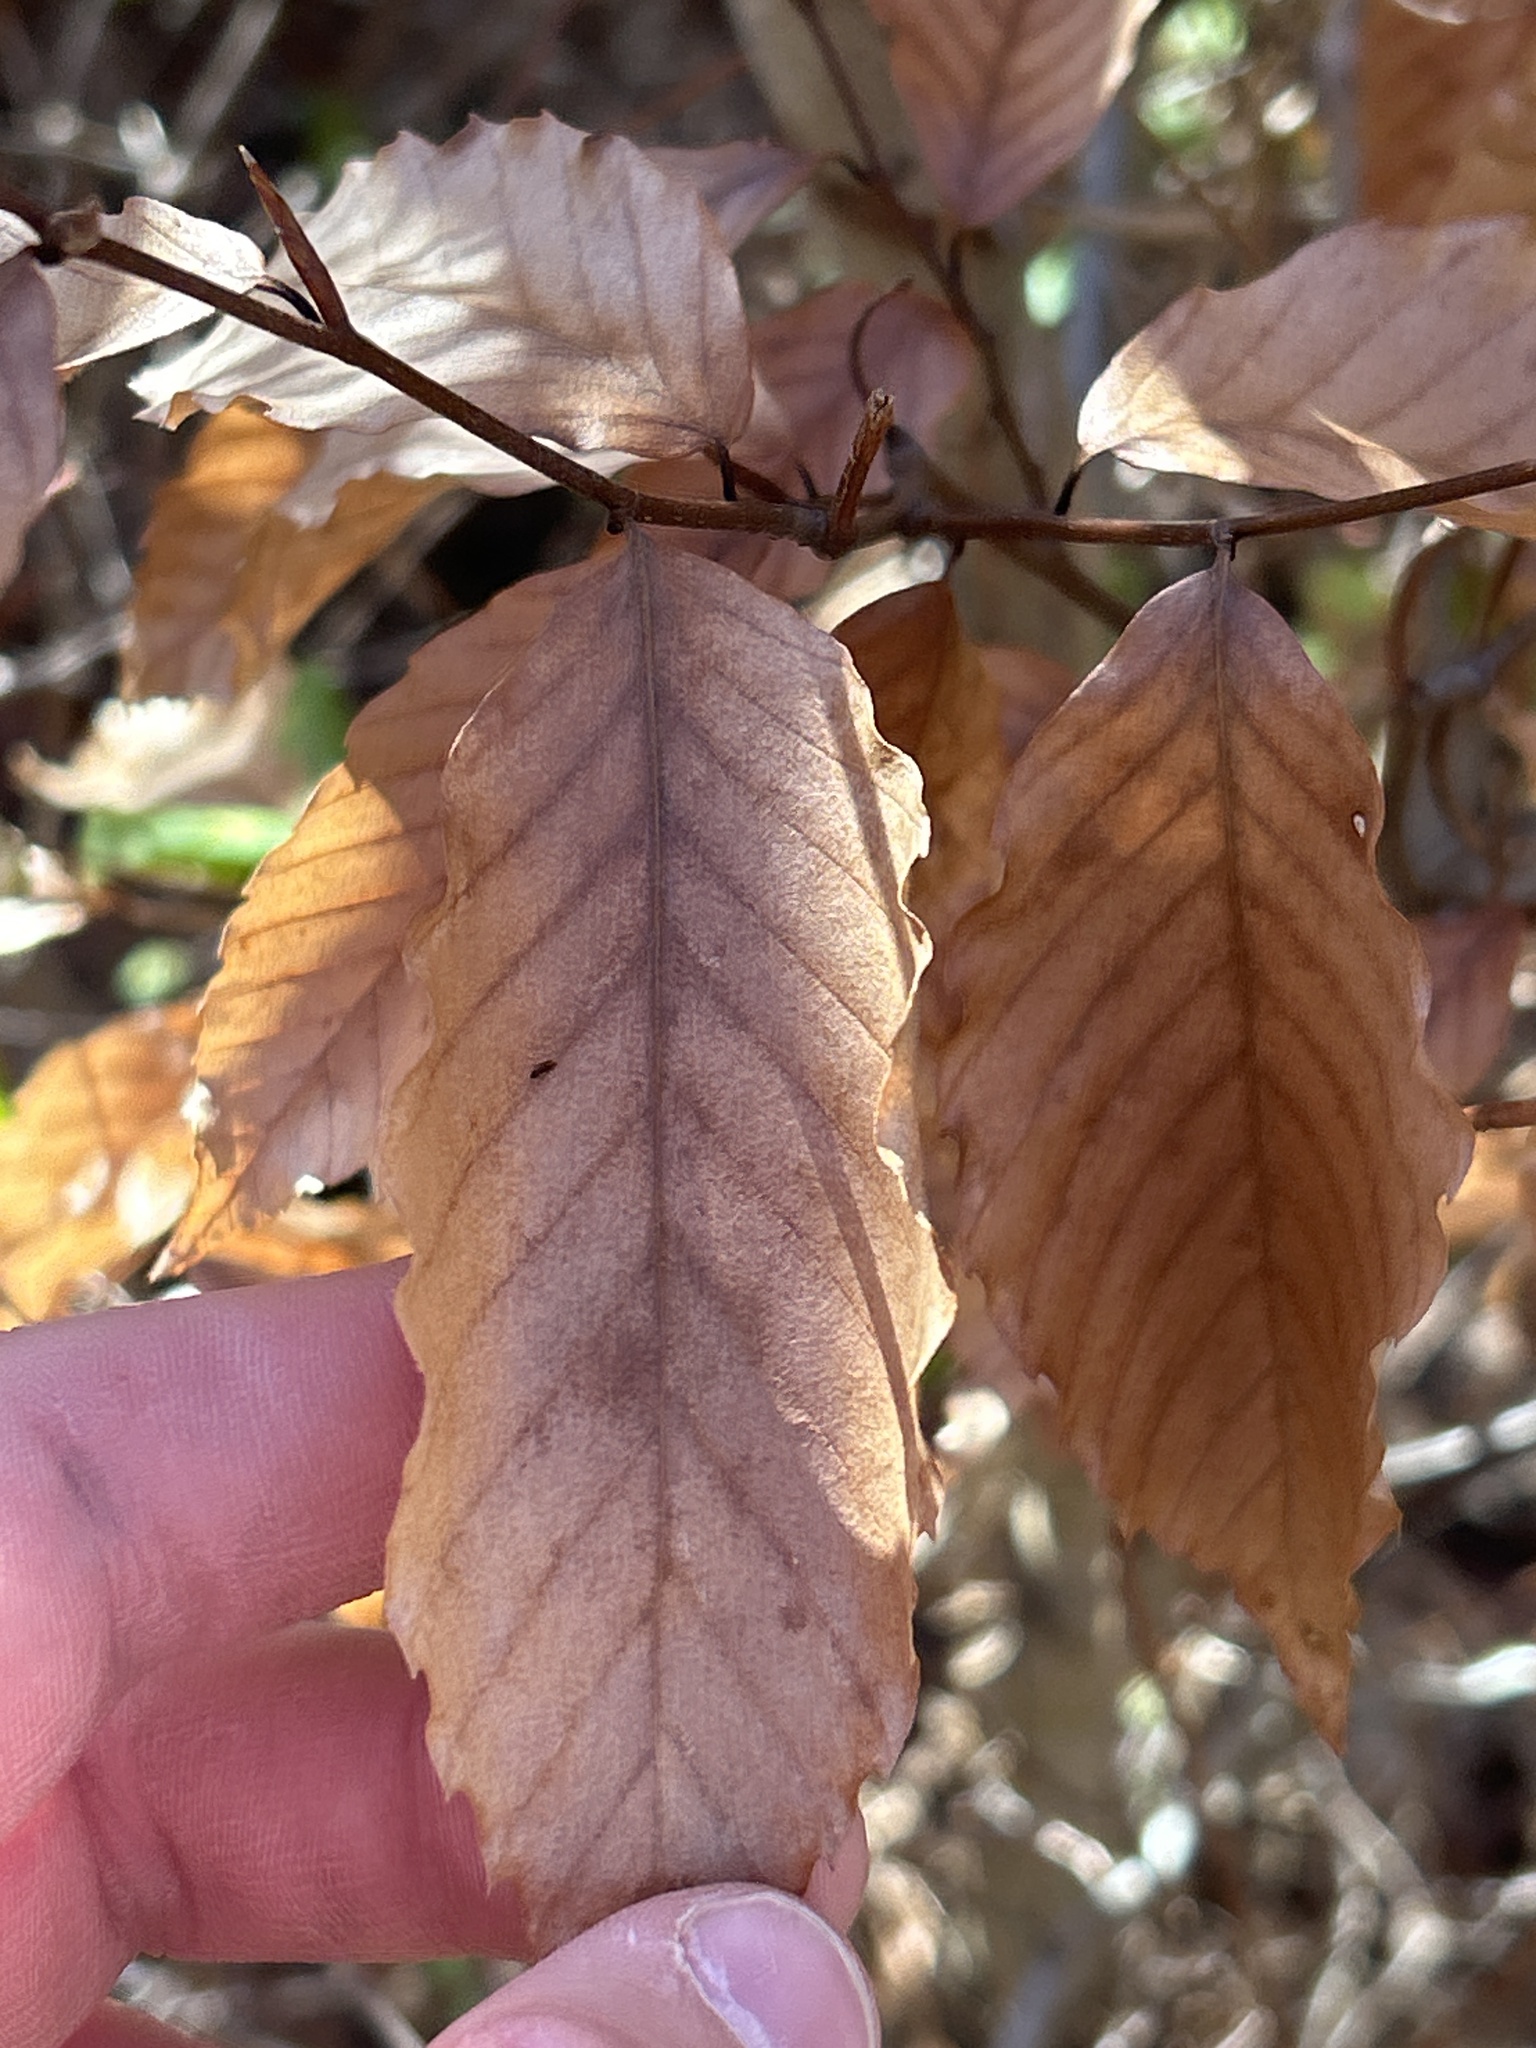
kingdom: Plantae
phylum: Tracheophyta
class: Magnoliopsida
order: Fagales
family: Fagaceae
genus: Fagus
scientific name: Fagus grandifolia
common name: American beech
